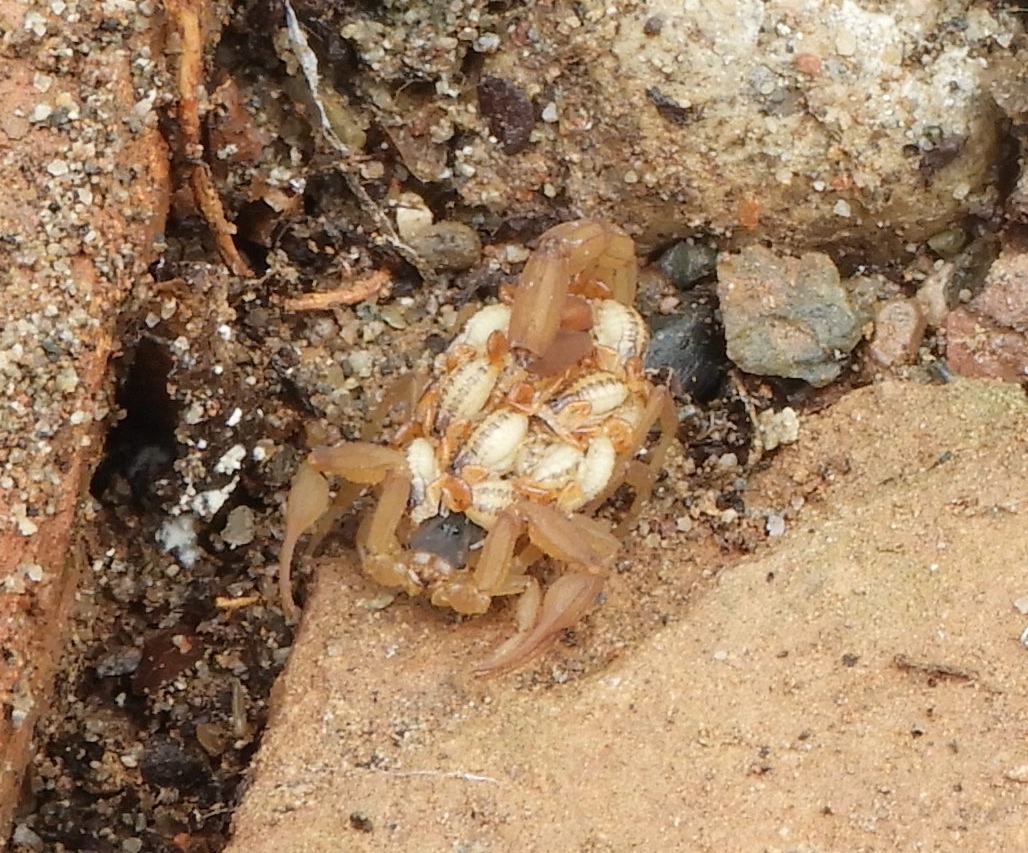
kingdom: Animalia
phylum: Arthropoda
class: Arachnida
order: Scorpiones
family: Buthidae
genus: Centruroides
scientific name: Centruroides baldazoi
